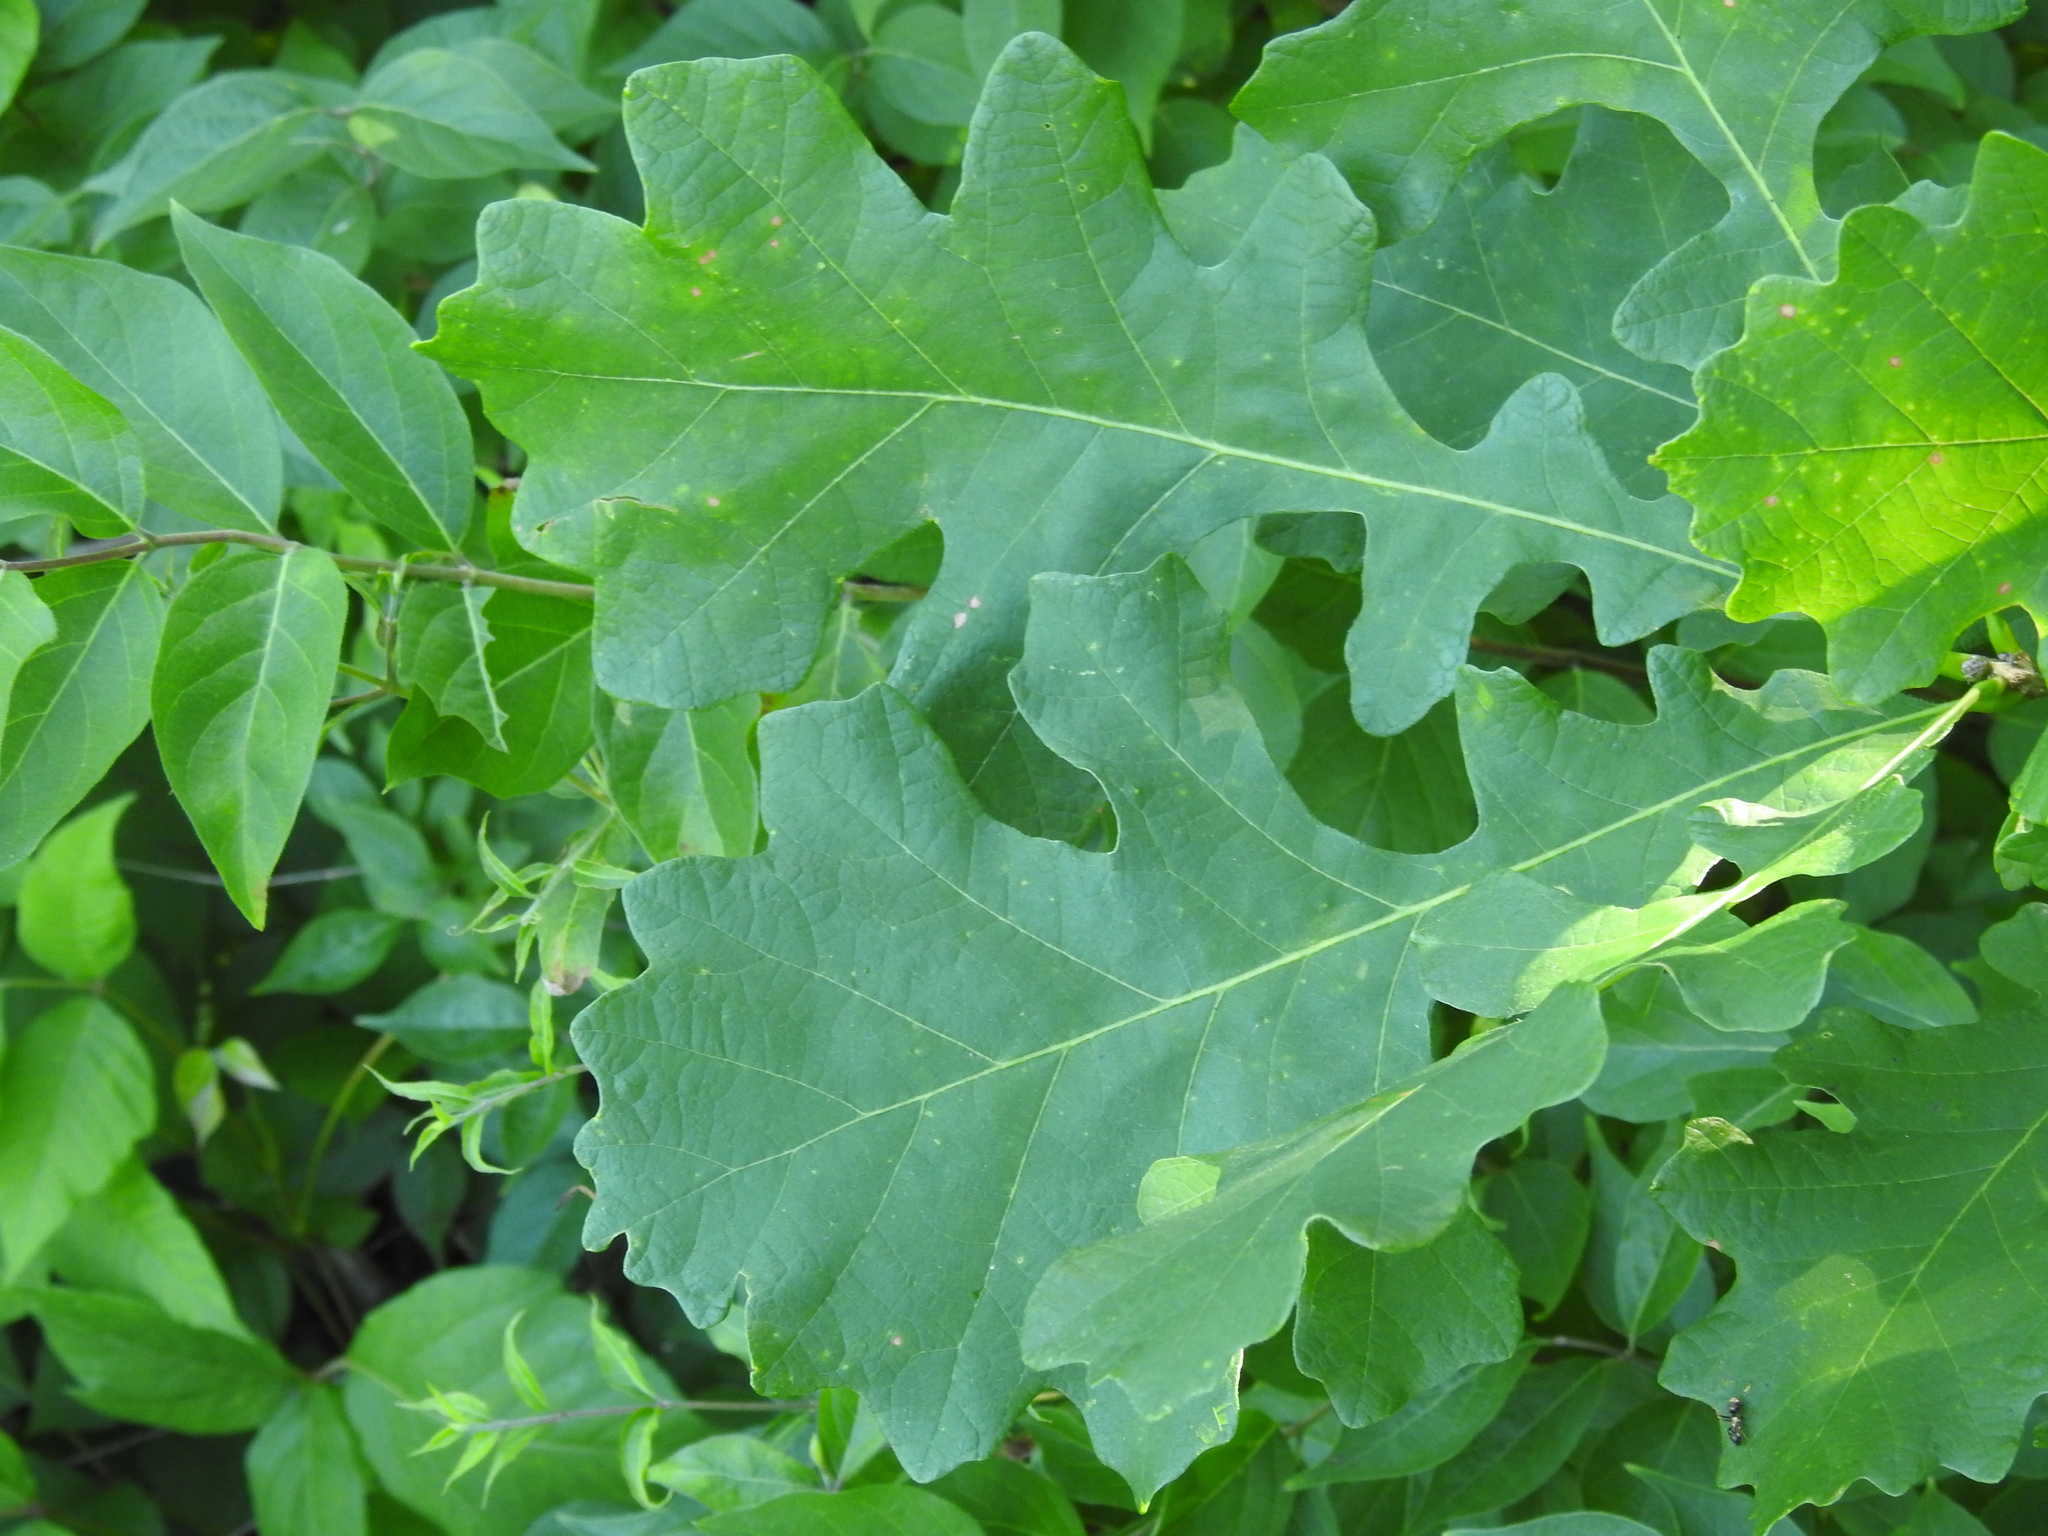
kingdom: Plantae
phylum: Tracheophyta
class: Magnoliopsida
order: Fagales
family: Fagaceae
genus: Quercus
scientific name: Quercus macrocarpa
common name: Bur oak
